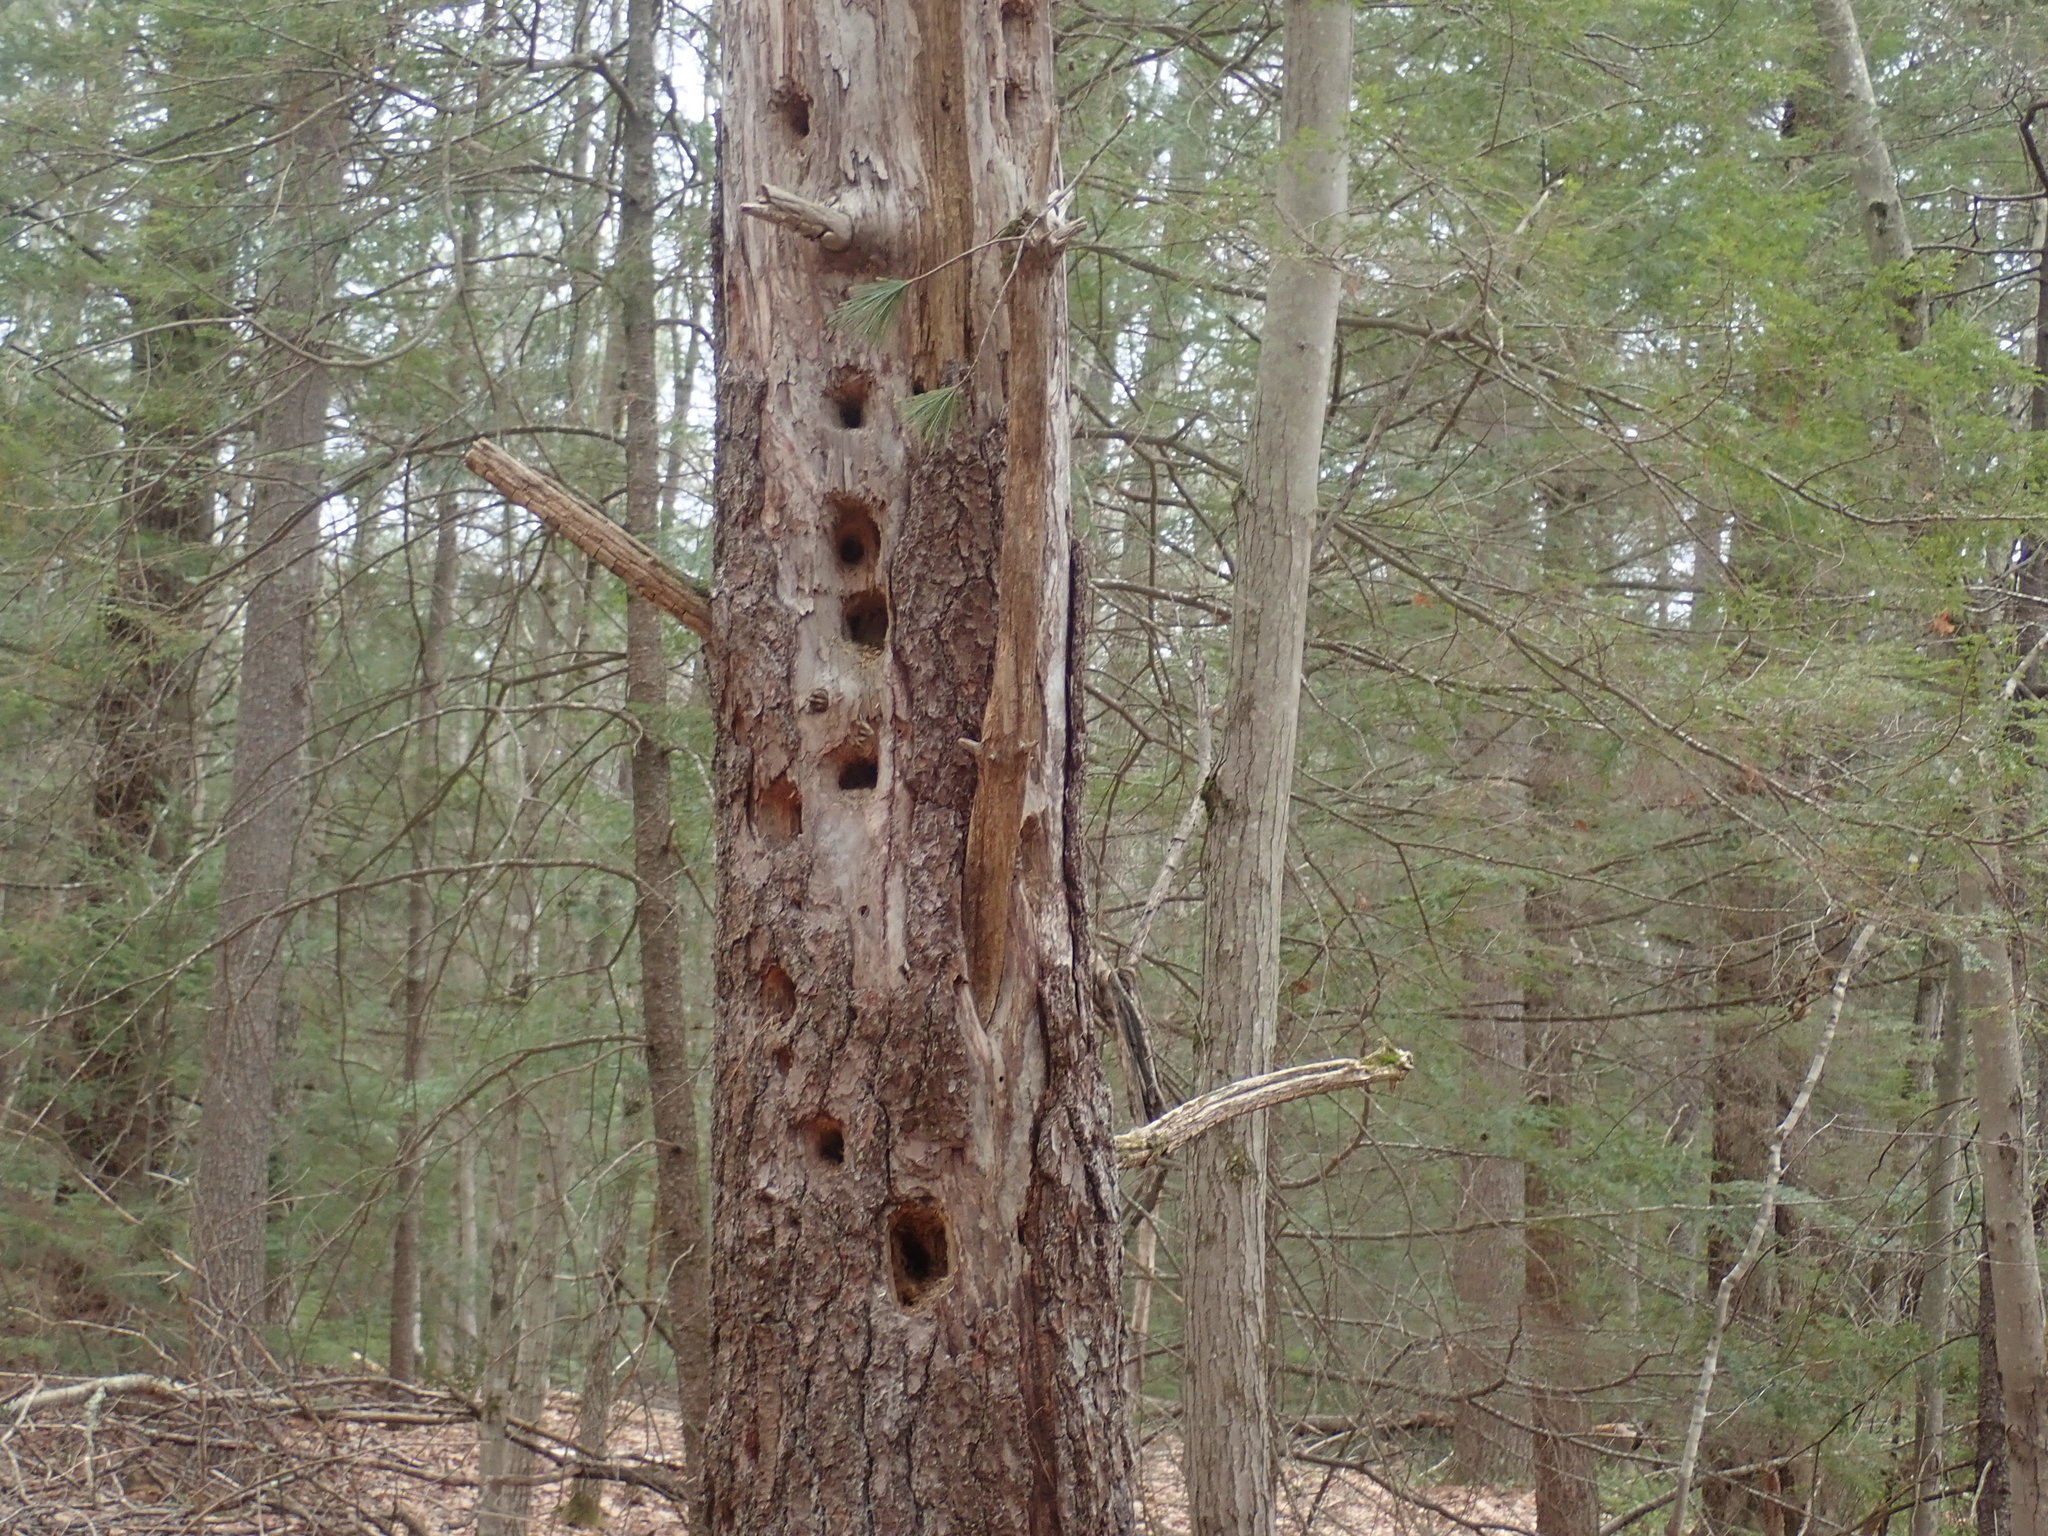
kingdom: Animalia
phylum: Chordata
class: Aves
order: Piciformes
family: Picidae
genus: Dryocopus
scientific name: Dryocopus pileatus
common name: Pileated woodpecker
